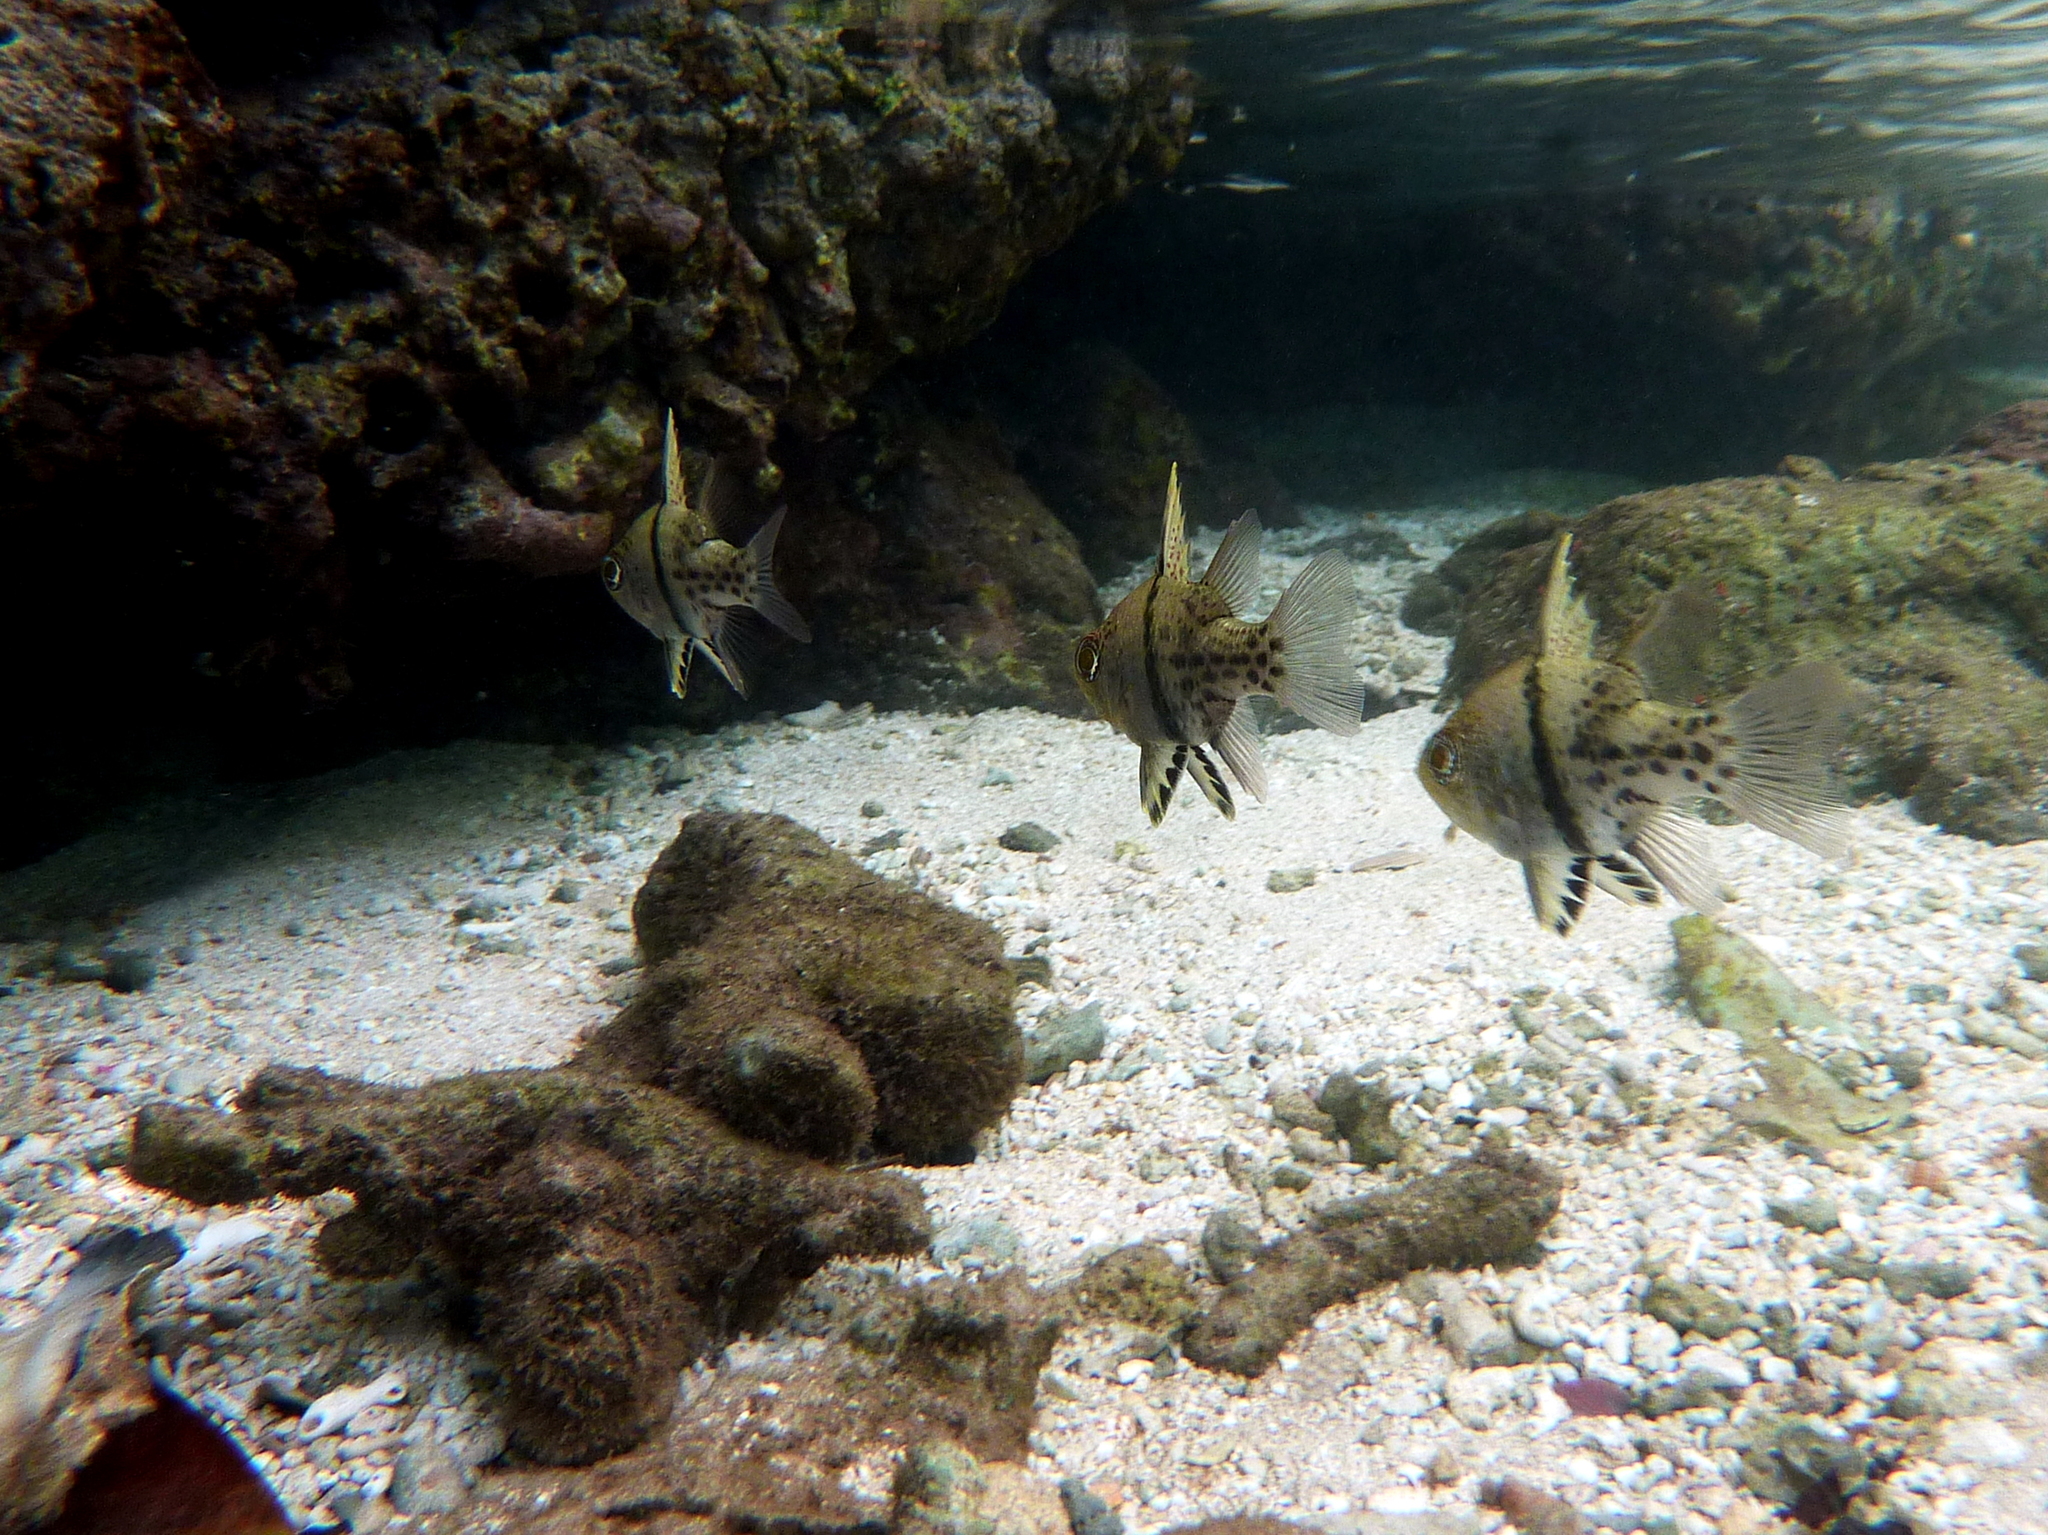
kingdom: Animalia
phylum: Chordata
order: Perciformes
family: Apogonidae
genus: Sphaeramia
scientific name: Sphaeramia orbicularis
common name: Polka-dot cardinalfish
